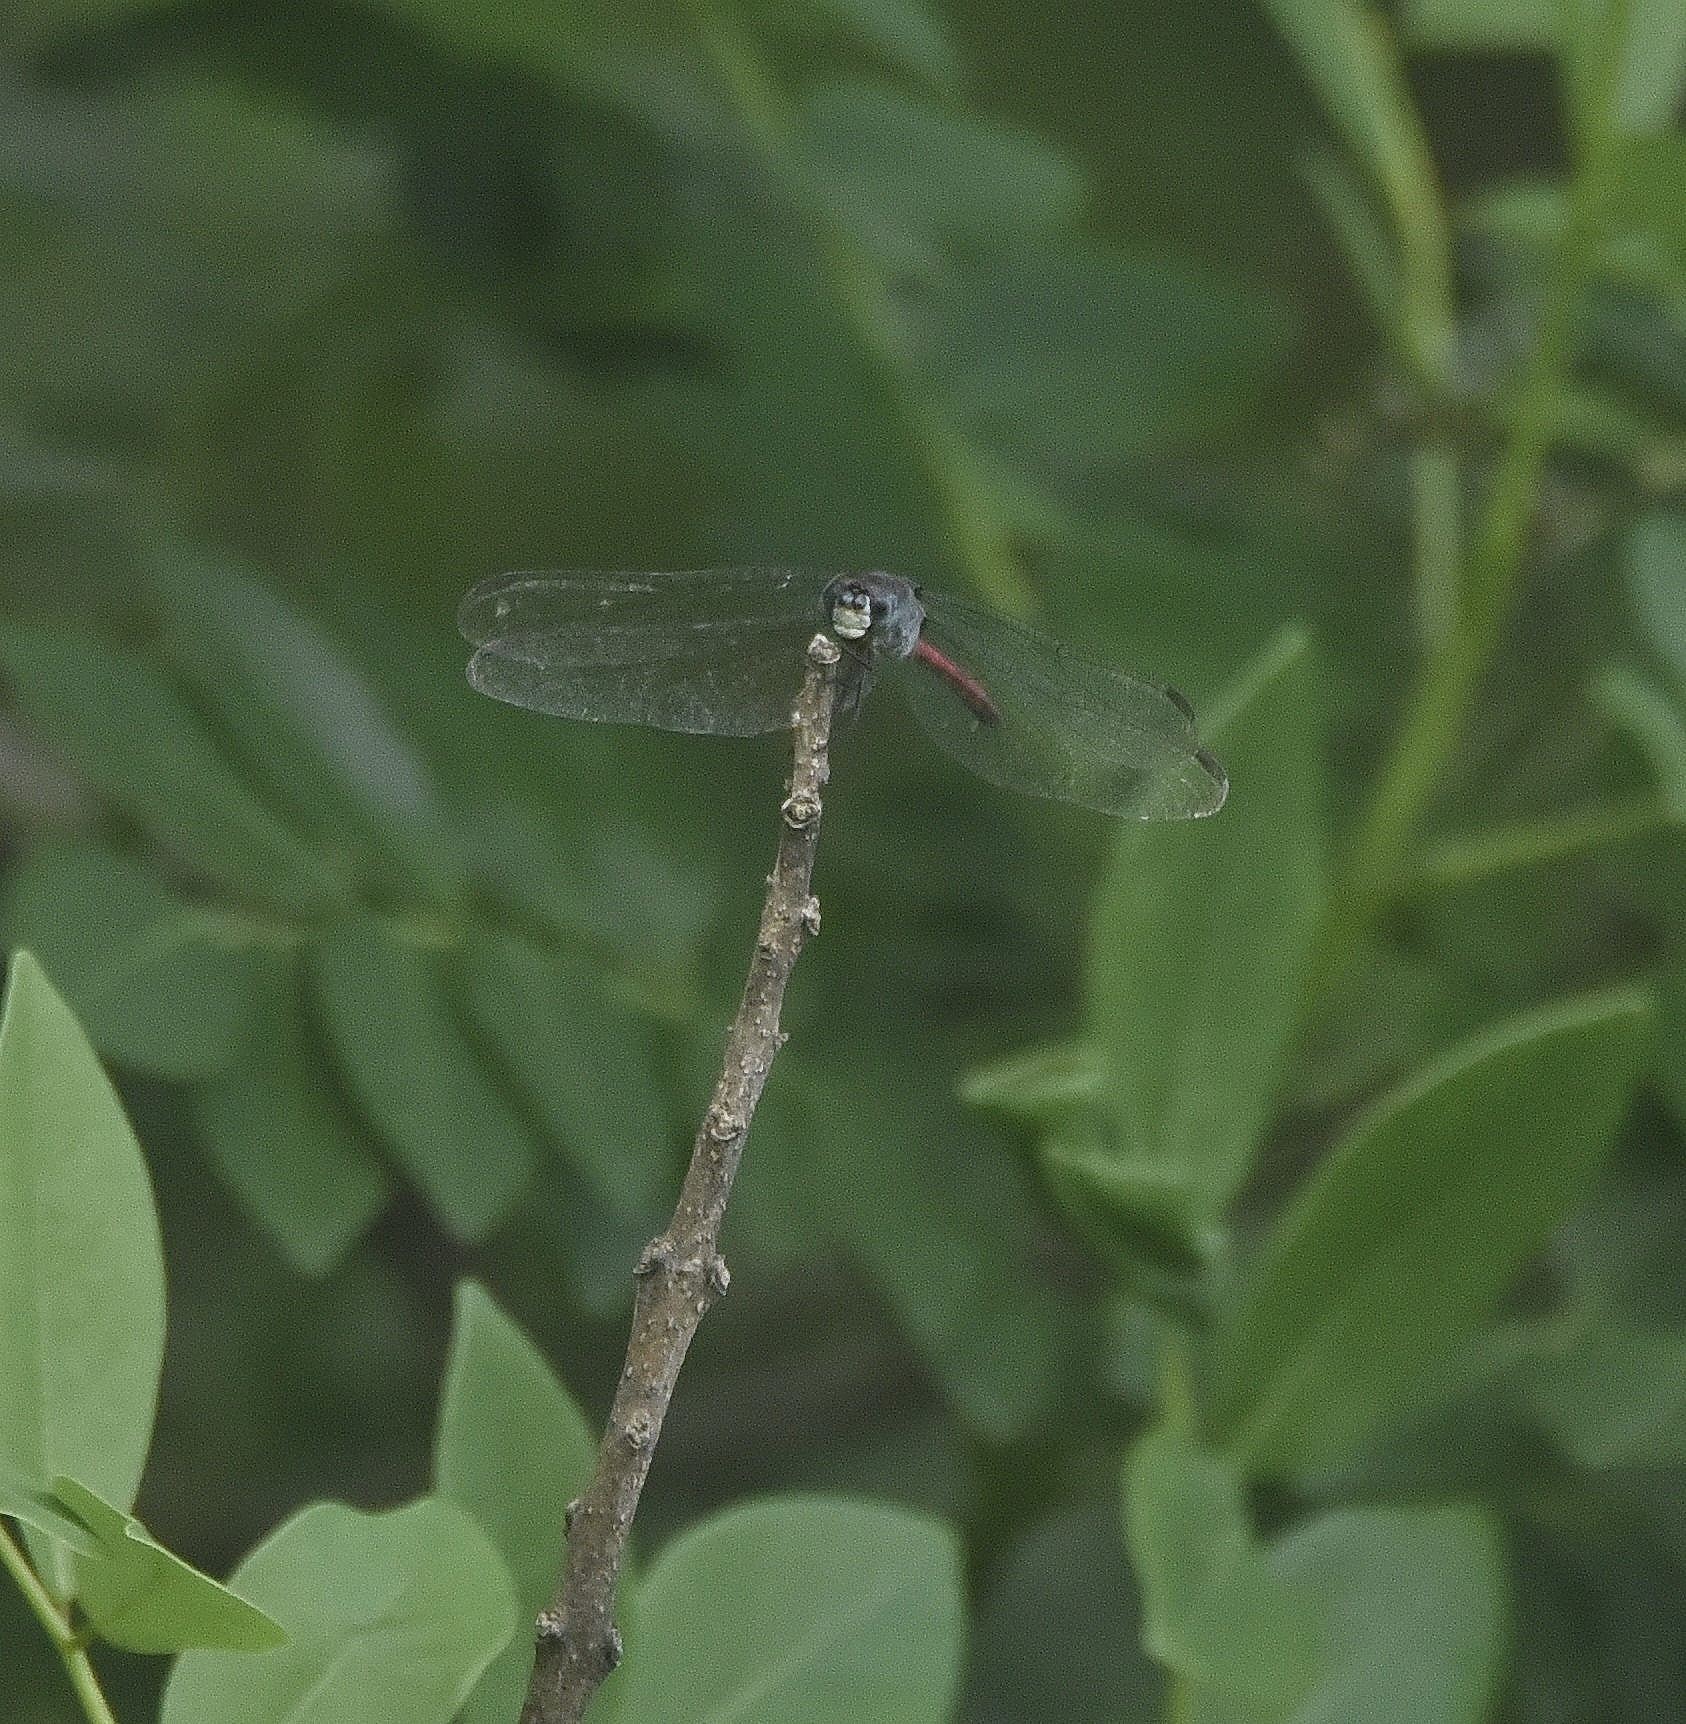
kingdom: Animalia
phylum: Arthropoda
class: Insecta
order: Odonata
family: Libellulidae
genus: Lathrecista
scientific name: Lathrecista asiatica
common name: Scarlet grenadier
